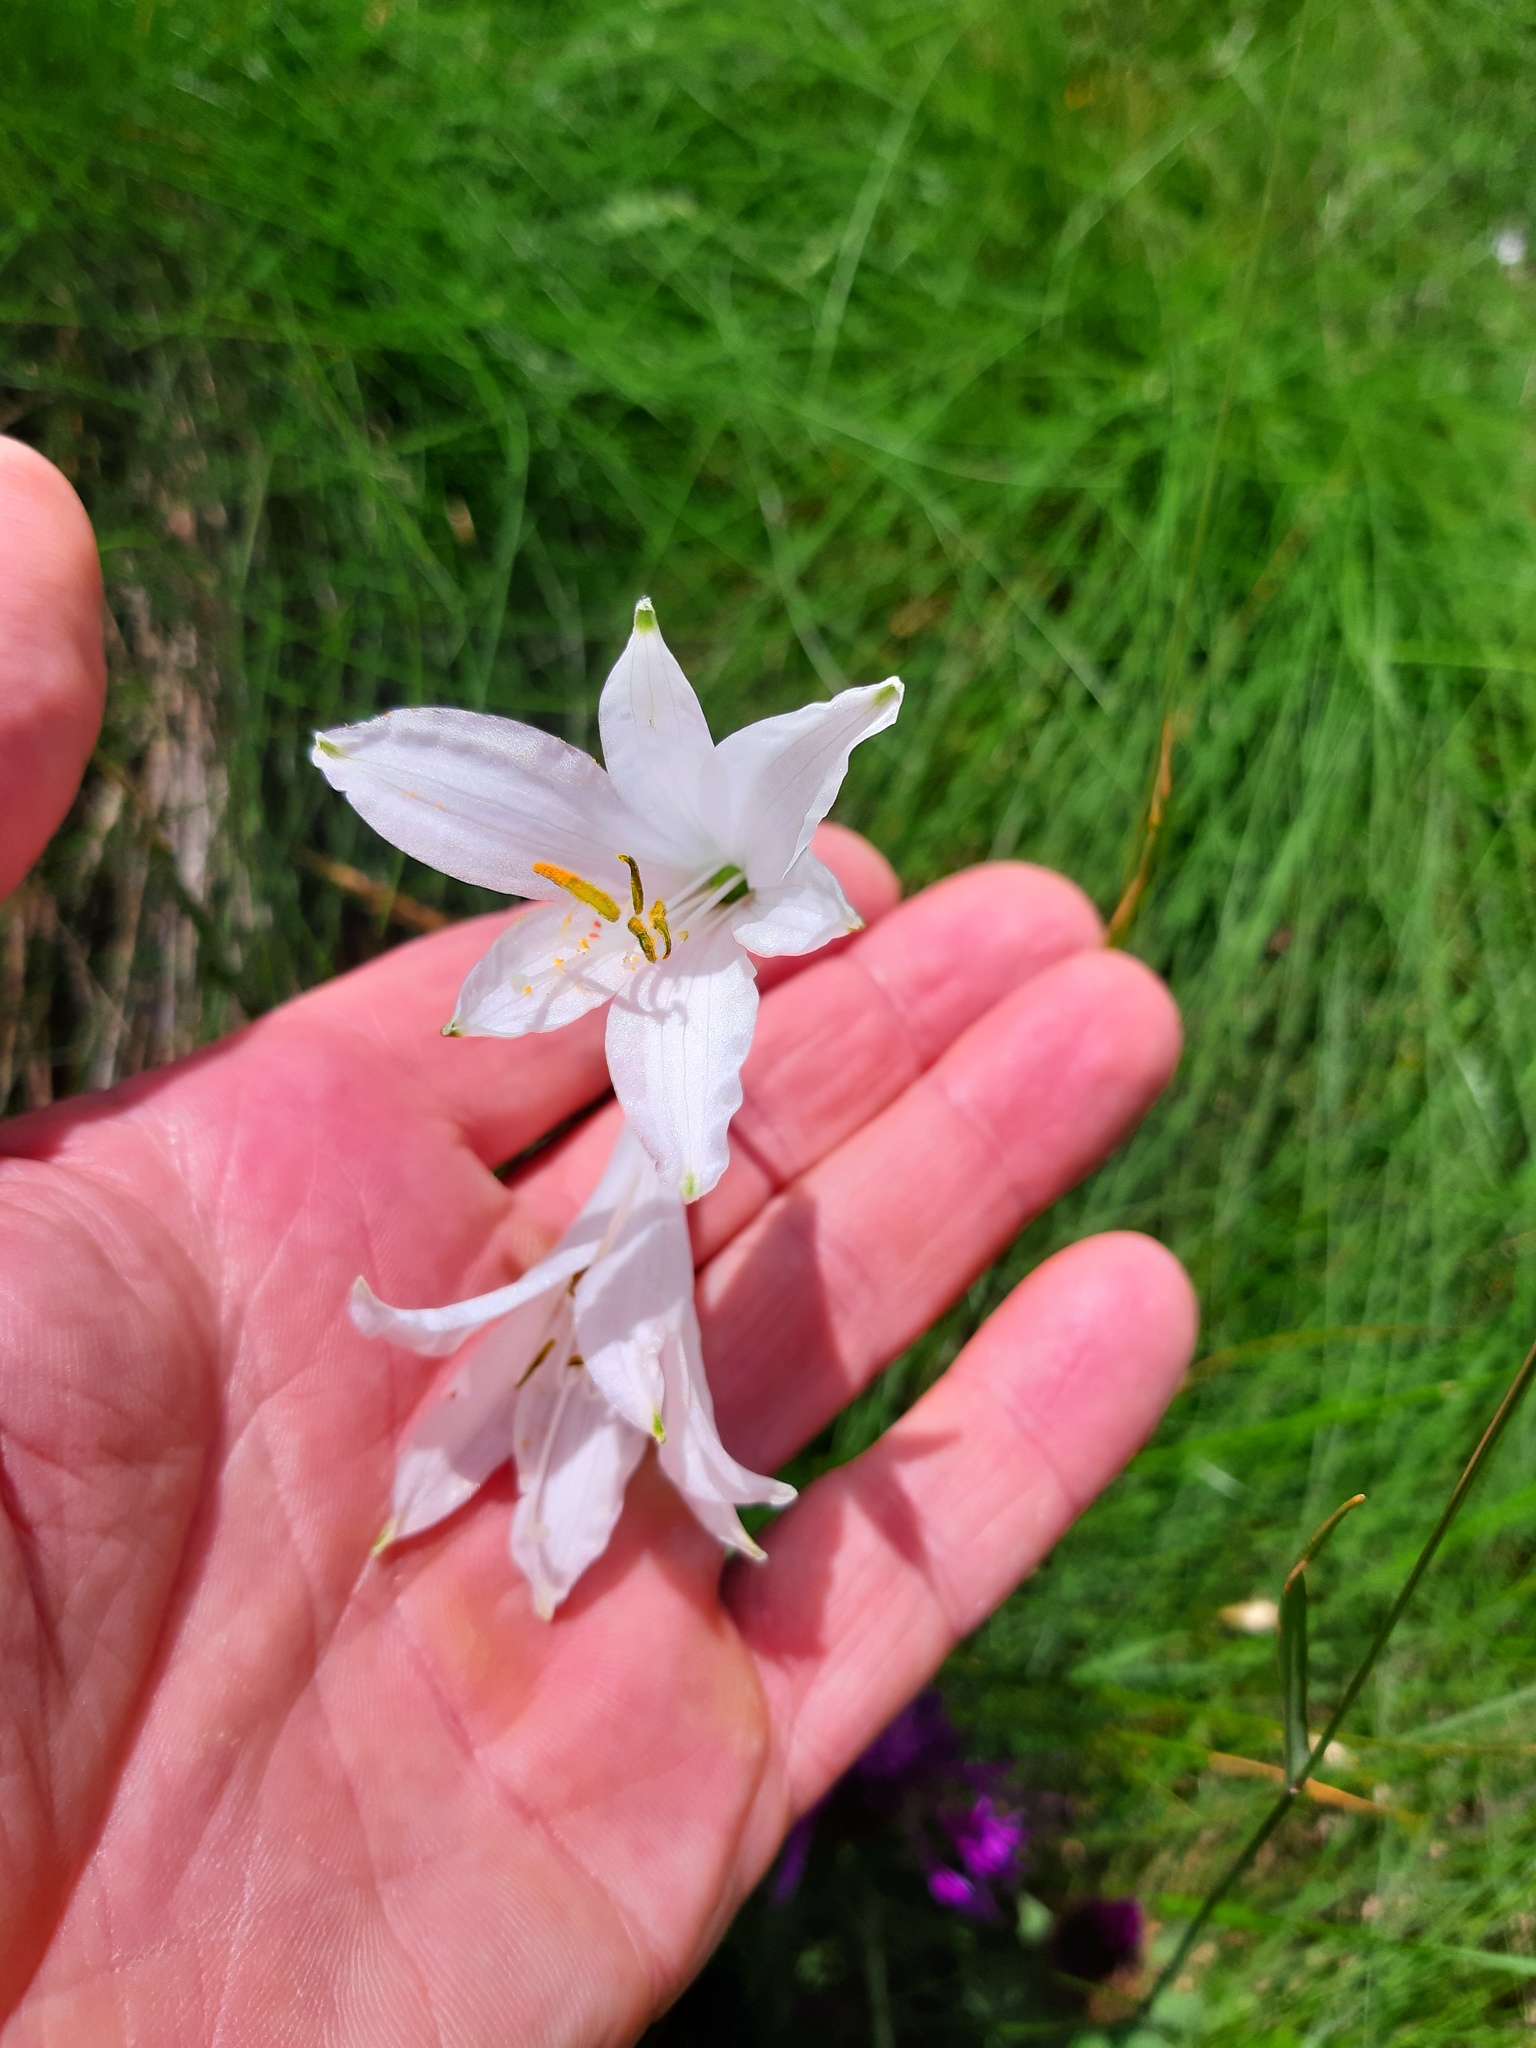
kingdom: Plantae
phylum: Tracheophyta
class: Liliopsida
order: Asparagales
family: Asparagaceae
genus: Paradisea
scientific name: Paradisea liliastrum
